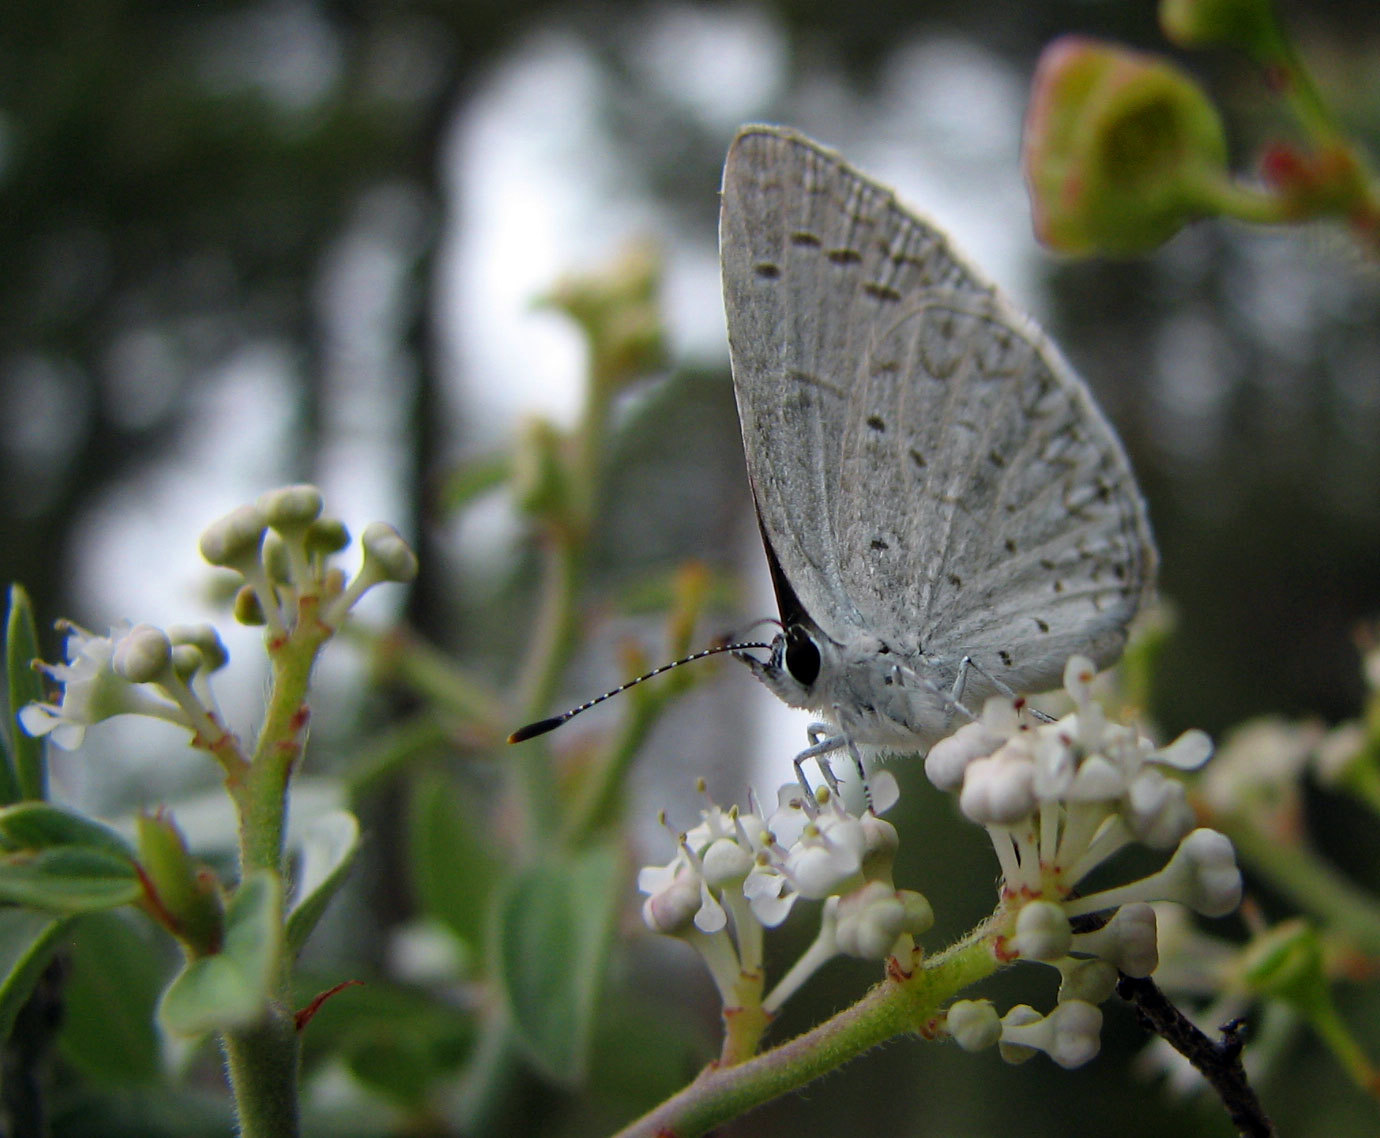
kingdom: Animalia
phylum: Arthropoda
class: Insecta
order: Lepidoptera
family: Lycaenidae
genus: Celastrina
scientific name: Celastrina ladon
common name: Spring azure
